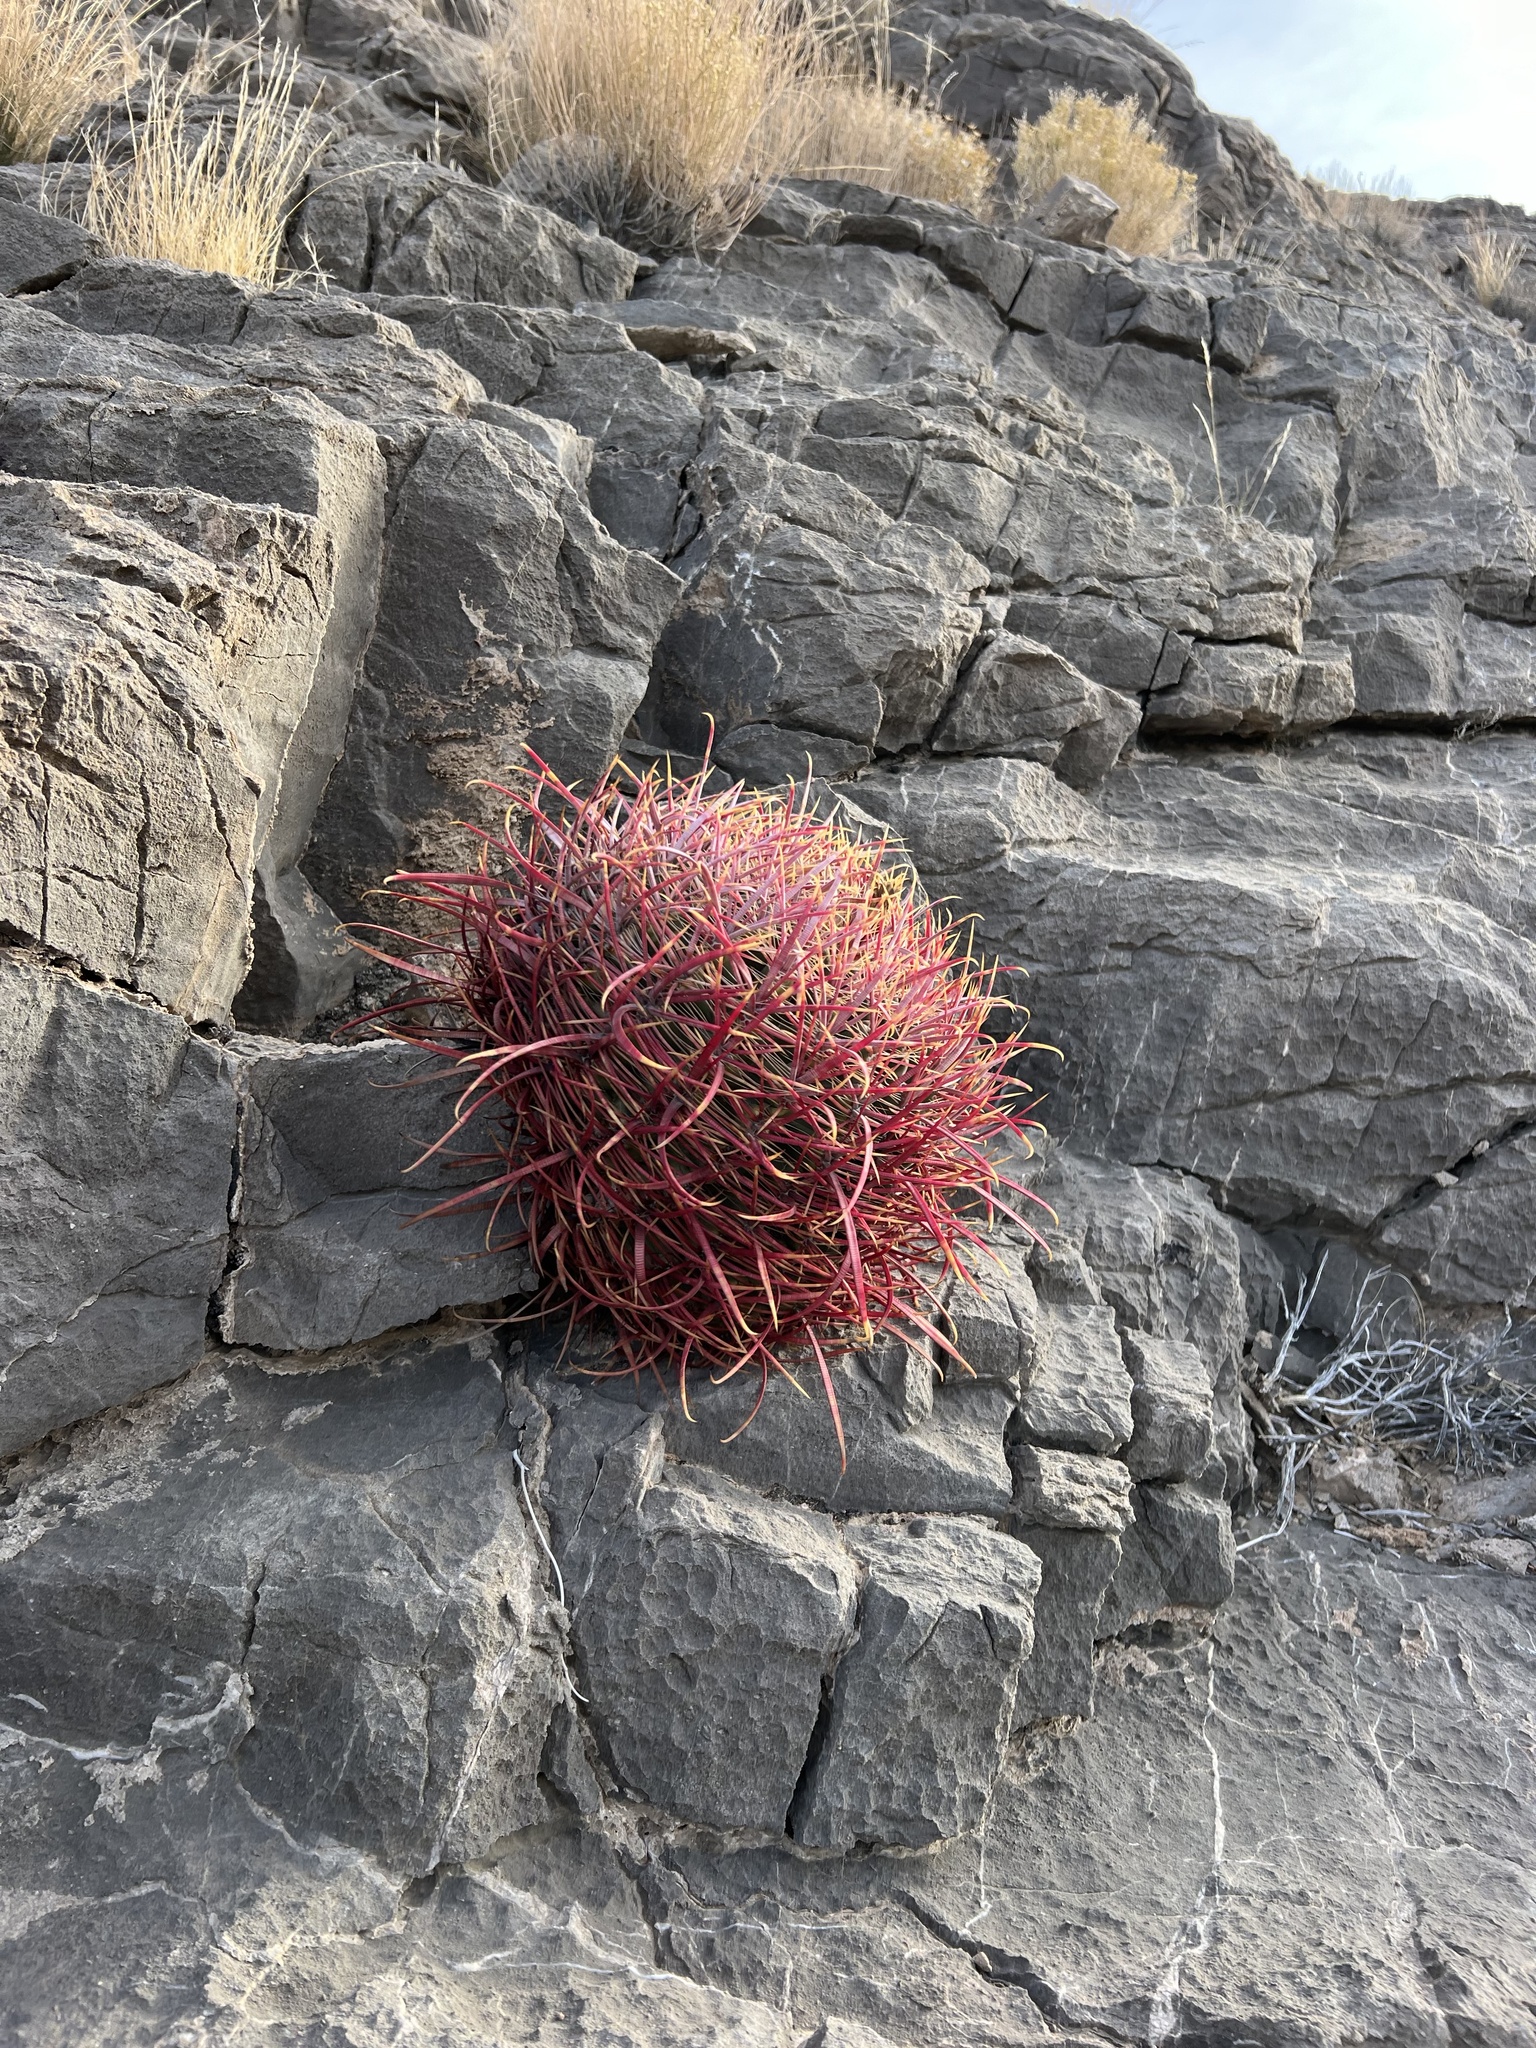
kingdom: Plantae
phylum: Tracheophyta
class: Magnoliopsida
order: Caryophyllales
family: Cactaceae
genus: Ferocactus
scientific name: Ferocactus cylindraceus
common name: California barrel cactus
